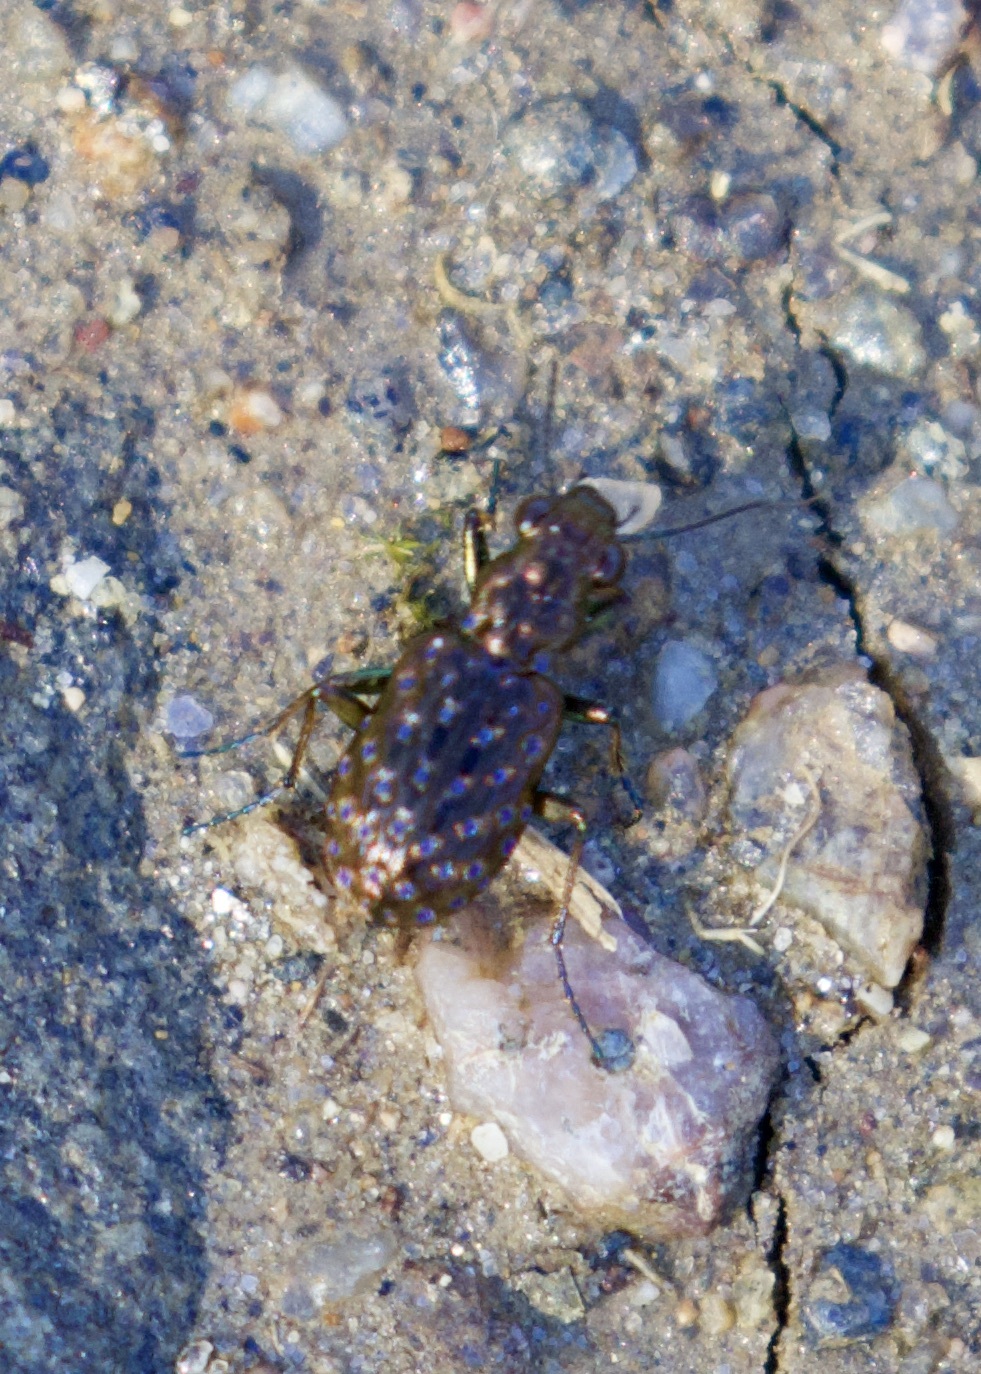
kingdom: Animalia
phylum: Arthropoda
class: Insecta
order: Coleoptera
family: Carabidae
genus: Elaphrus
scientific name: Elaphrus cupreus
